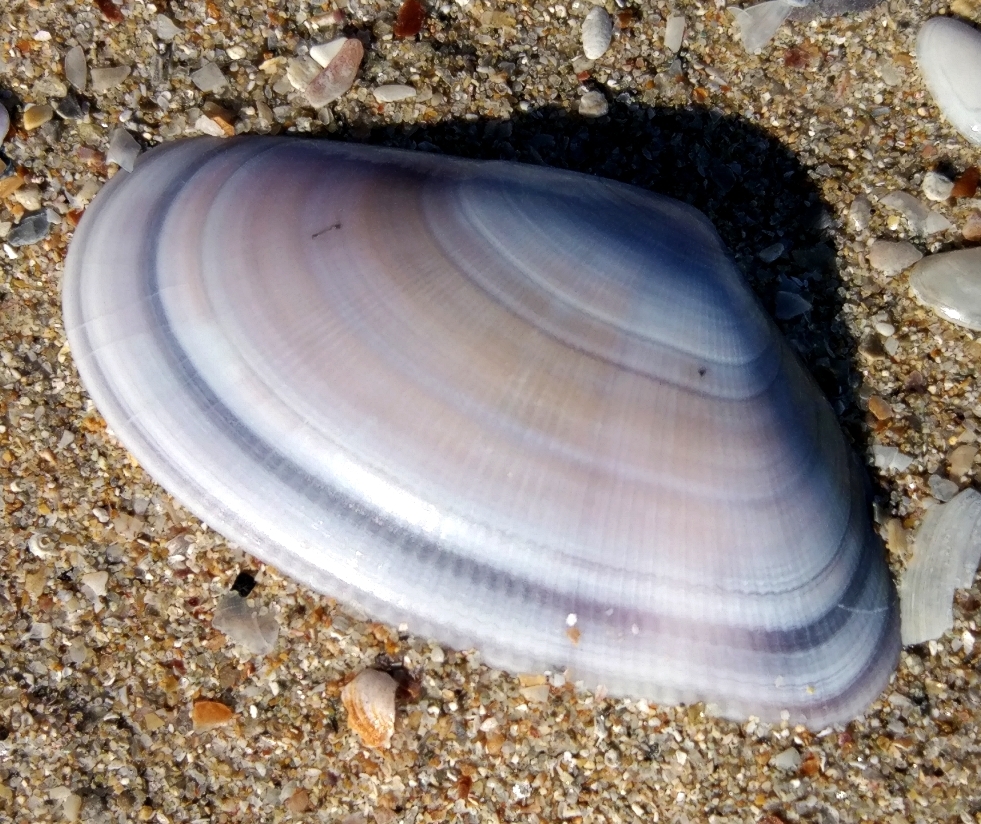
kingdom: Animalia
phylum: Mollusca
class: Bivalvia
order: Cardiida
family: Donacidae
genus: Donax
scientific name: Donax trunculus
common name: Truncate donax
